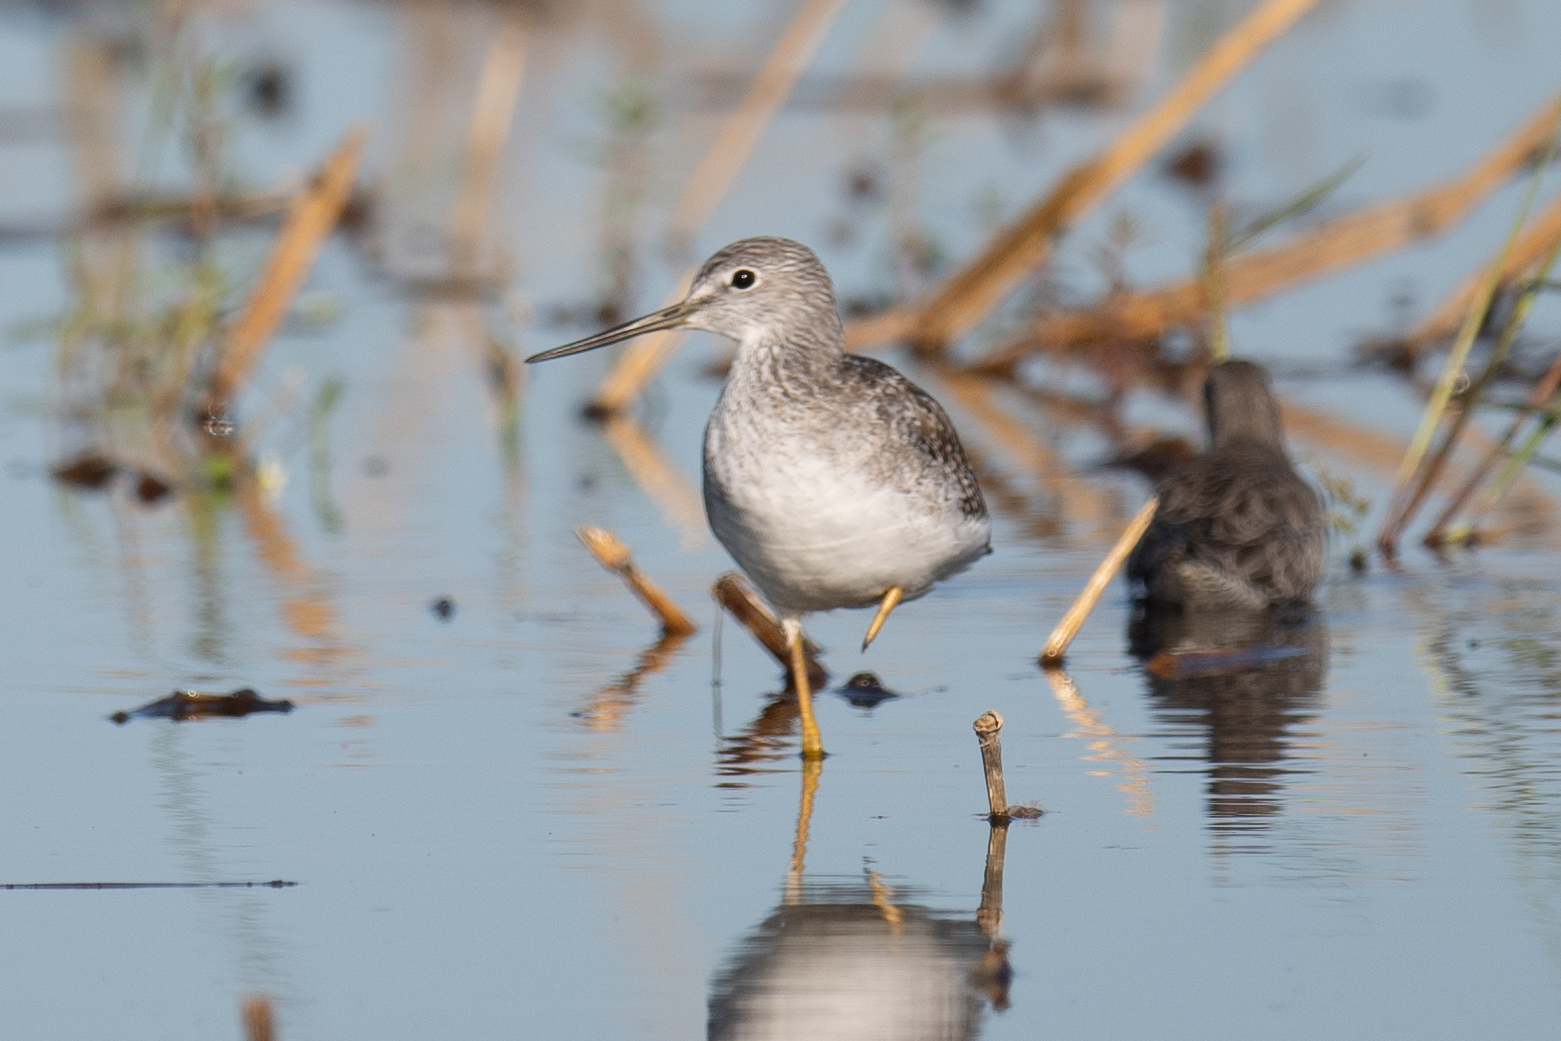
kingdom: Animalia
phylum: Chordata
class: Aves
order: Charadriiformes
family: Scolopacidae
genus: Tringa
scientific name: Tringa melanoleuca
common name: Greater yellowlegs
